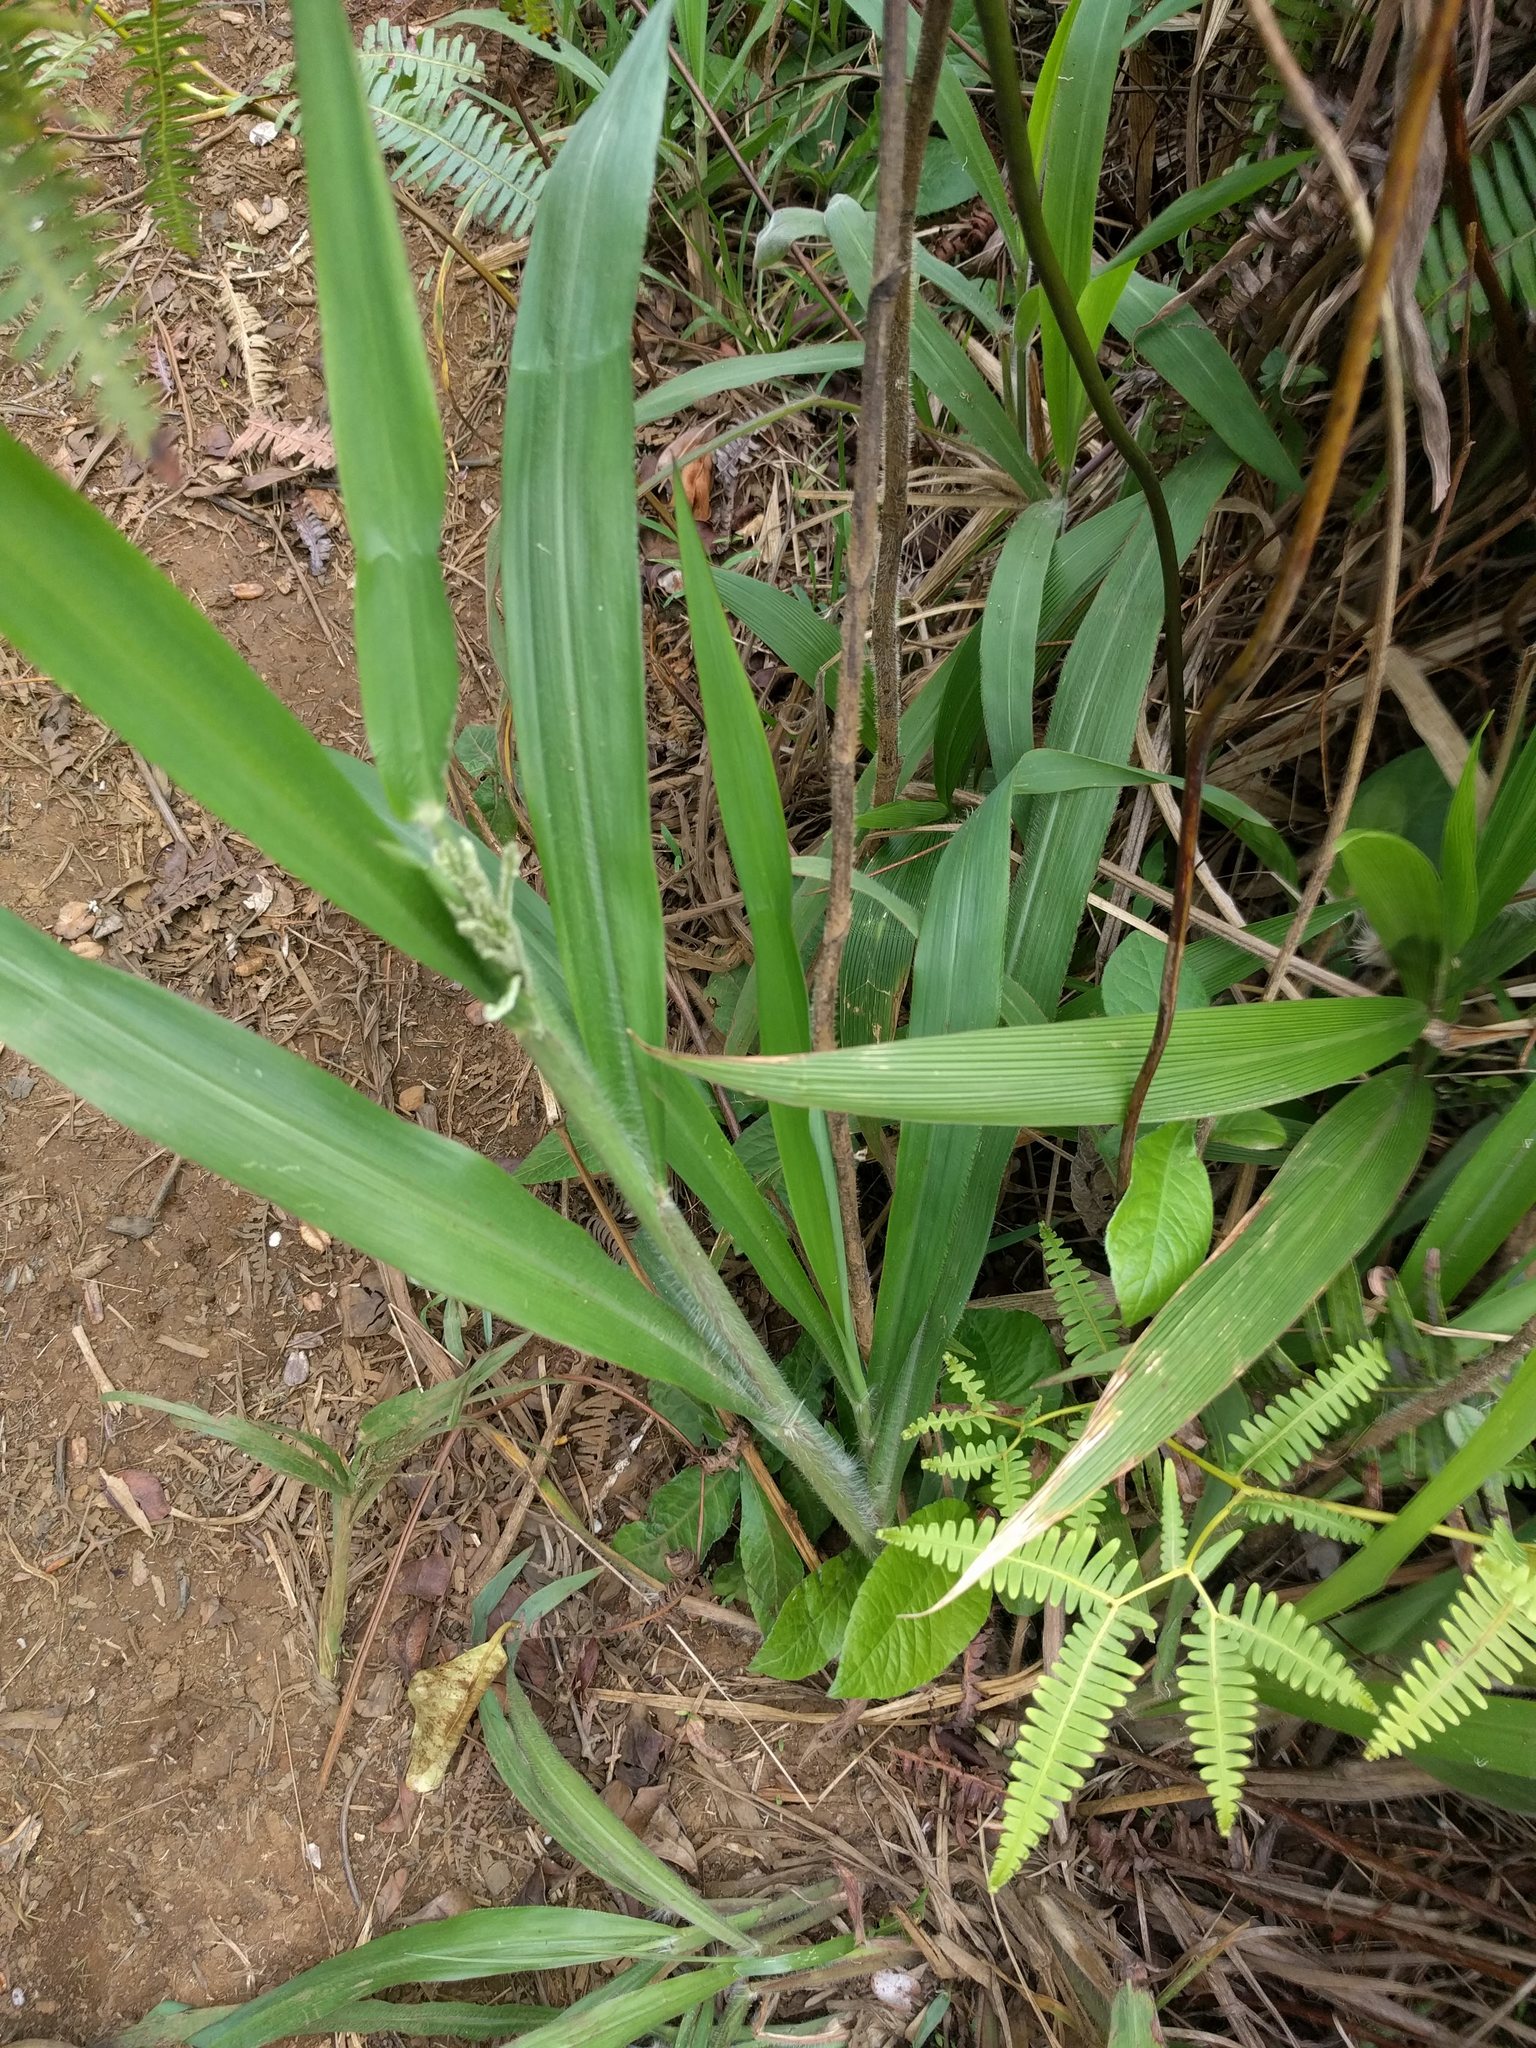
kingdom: Plantae
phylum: Tracheophyta
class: Liliopsida
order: Poales
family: Poaceae
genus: Paspalum
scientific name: Paspalum paniculatum
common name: Arrocillo
